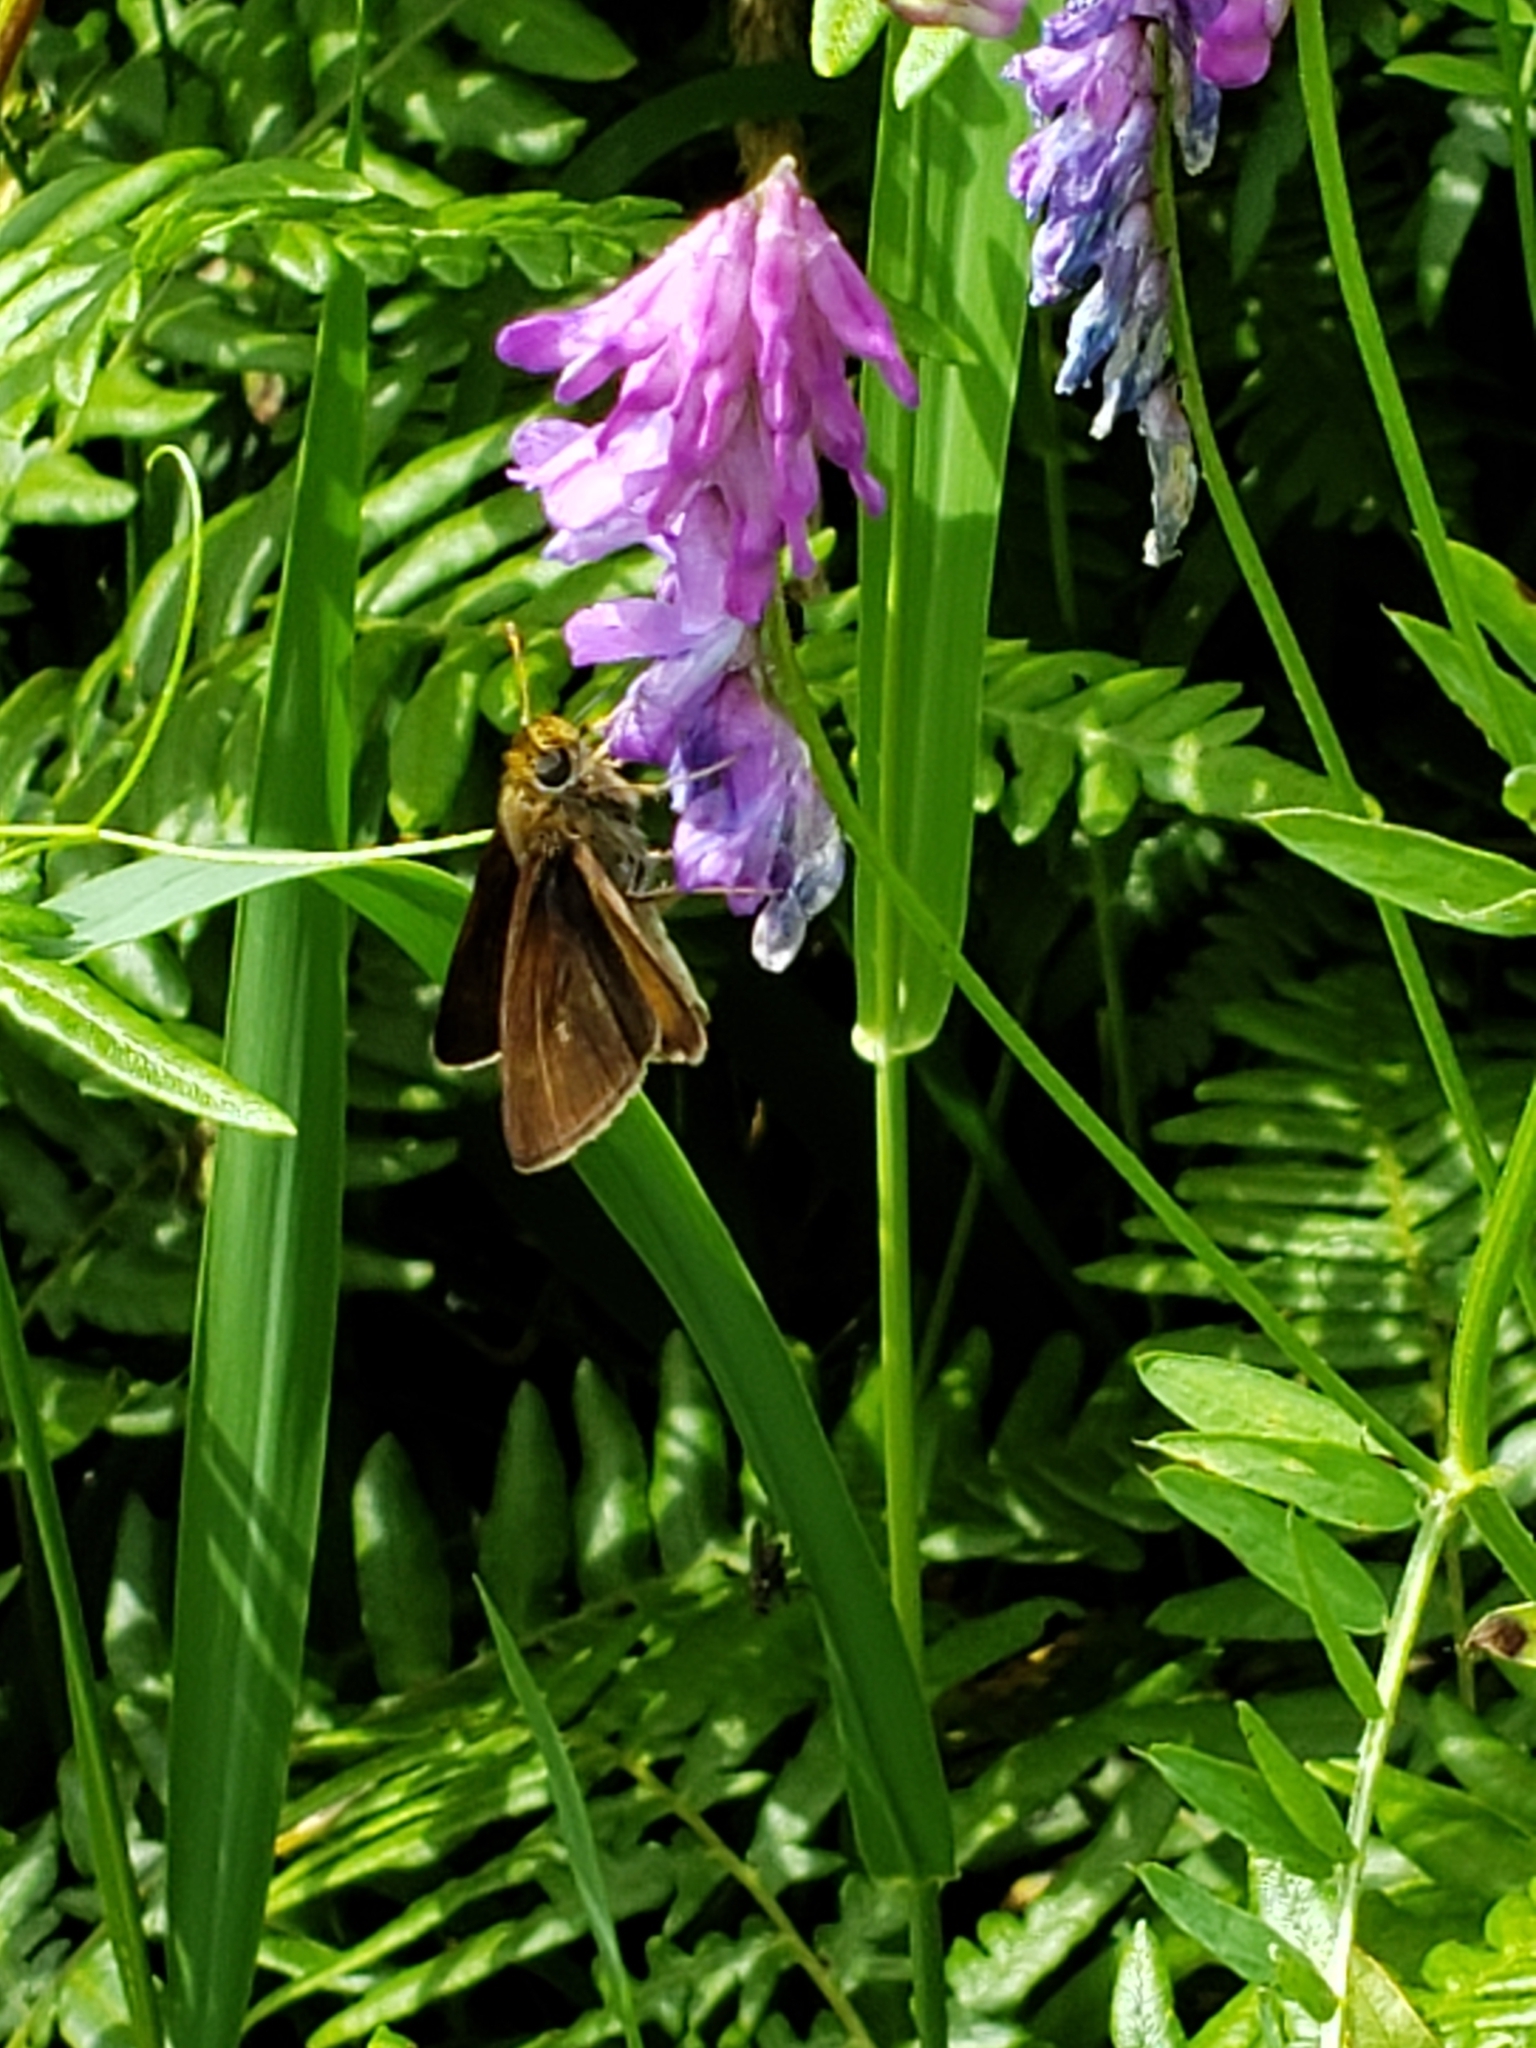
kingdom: Animalia
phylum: Arthropoda
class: Insecta
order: Lepidoptera
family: Hesperiidae
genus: Euphyes
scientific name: Euphyes vestris
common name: Dun skipper
